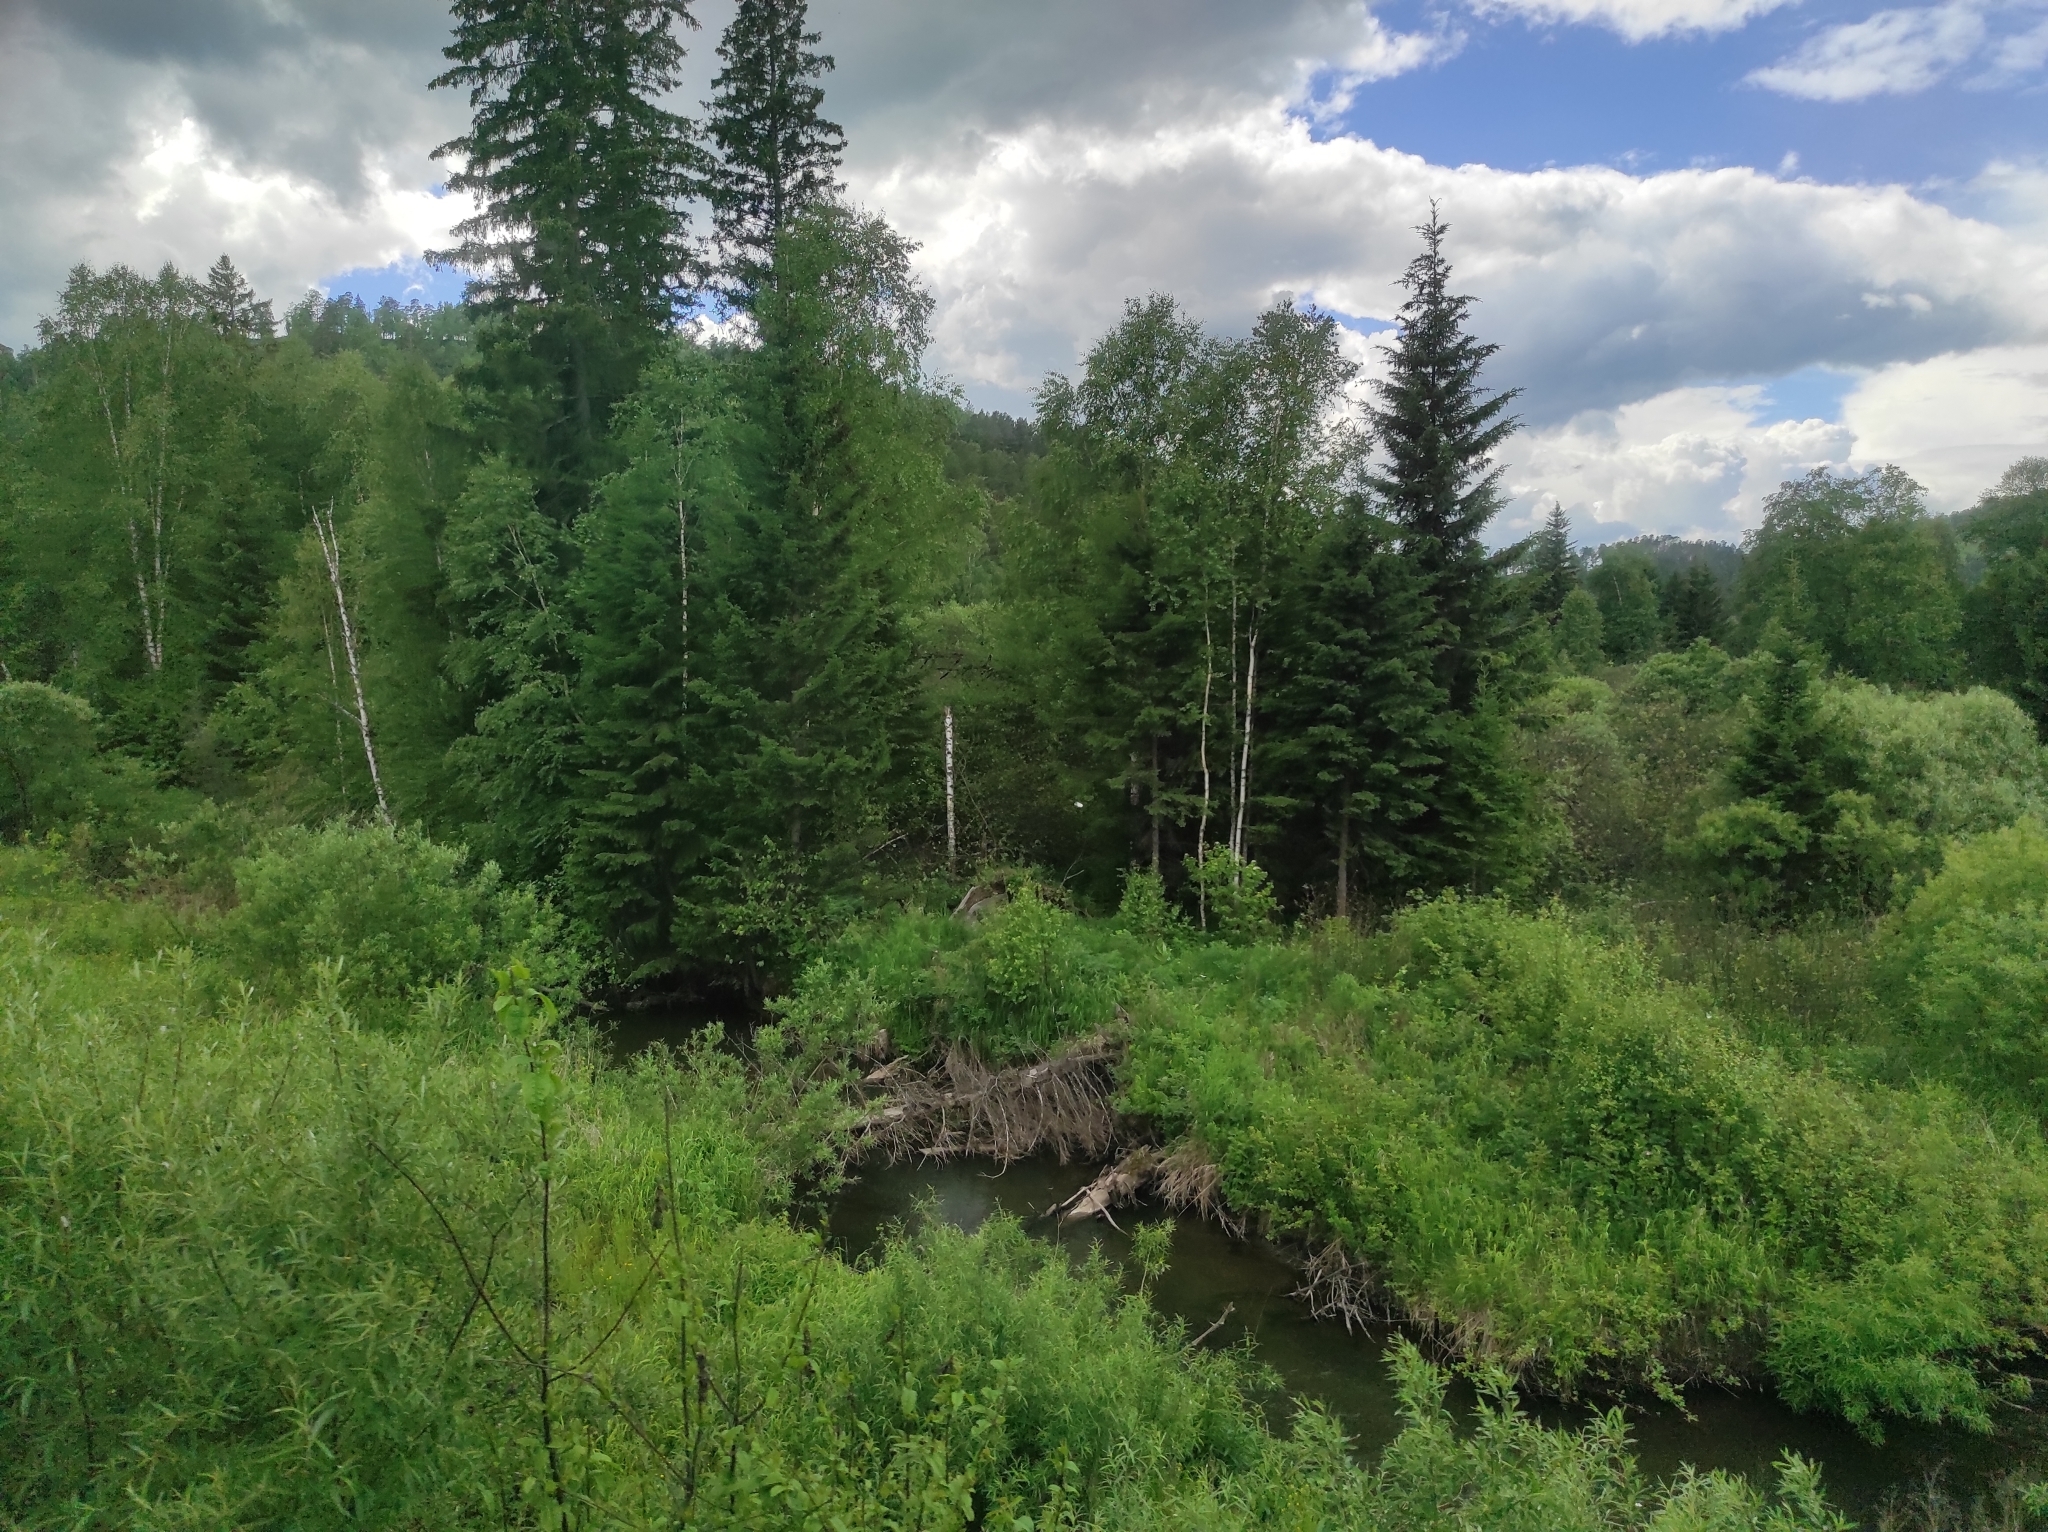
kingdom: Plantae
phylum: Tracheophyta
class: Pinopsida
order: Pinales
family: Pinaceae
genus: Picea
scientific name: Picea obovata
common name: Siberian spruce
